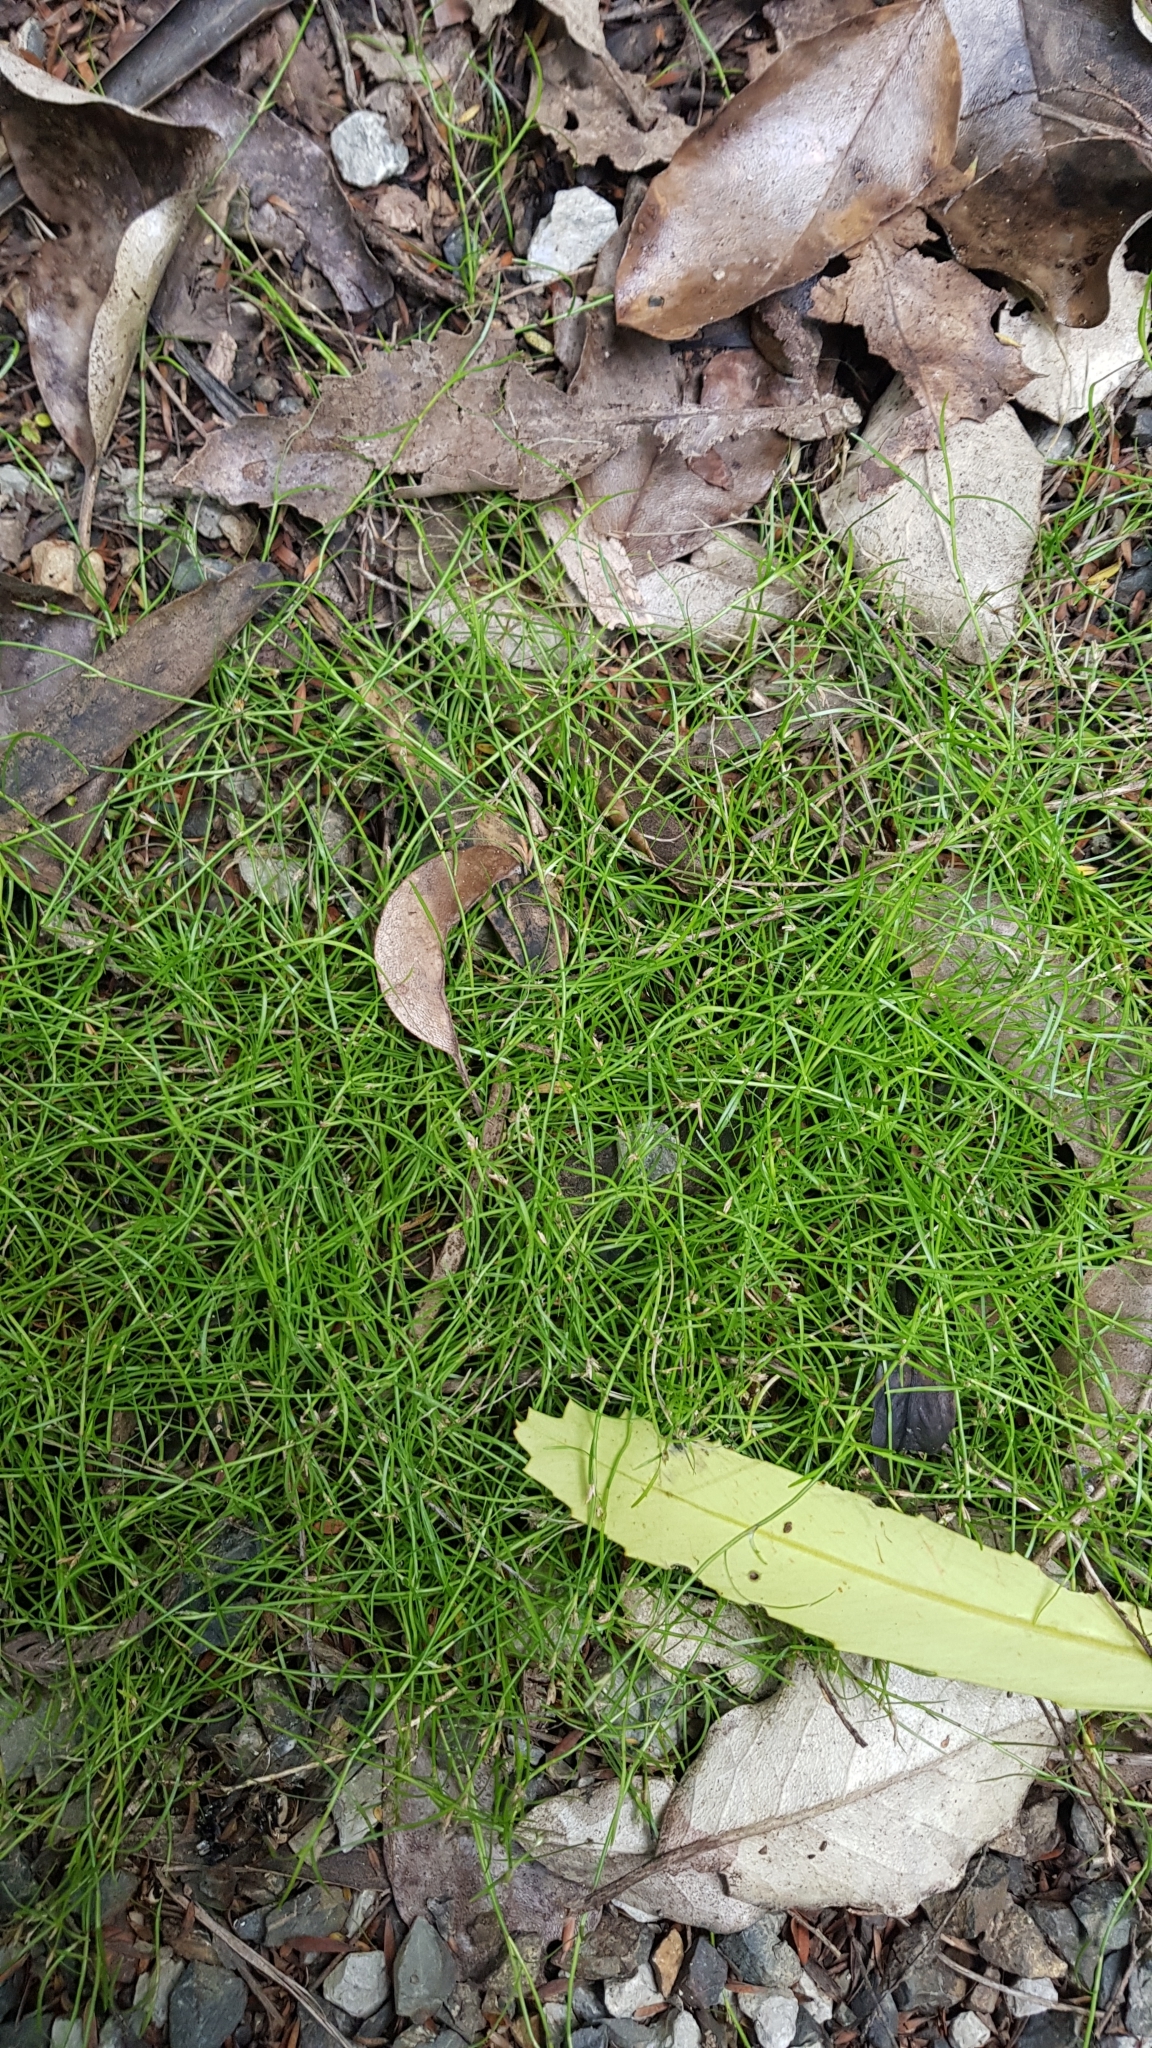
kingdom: Plantae
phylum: Tracheophyta
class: Liliopsida
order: Poales
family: Cyperaceae
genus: Schoenus
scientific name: Schoenus maschalinus
